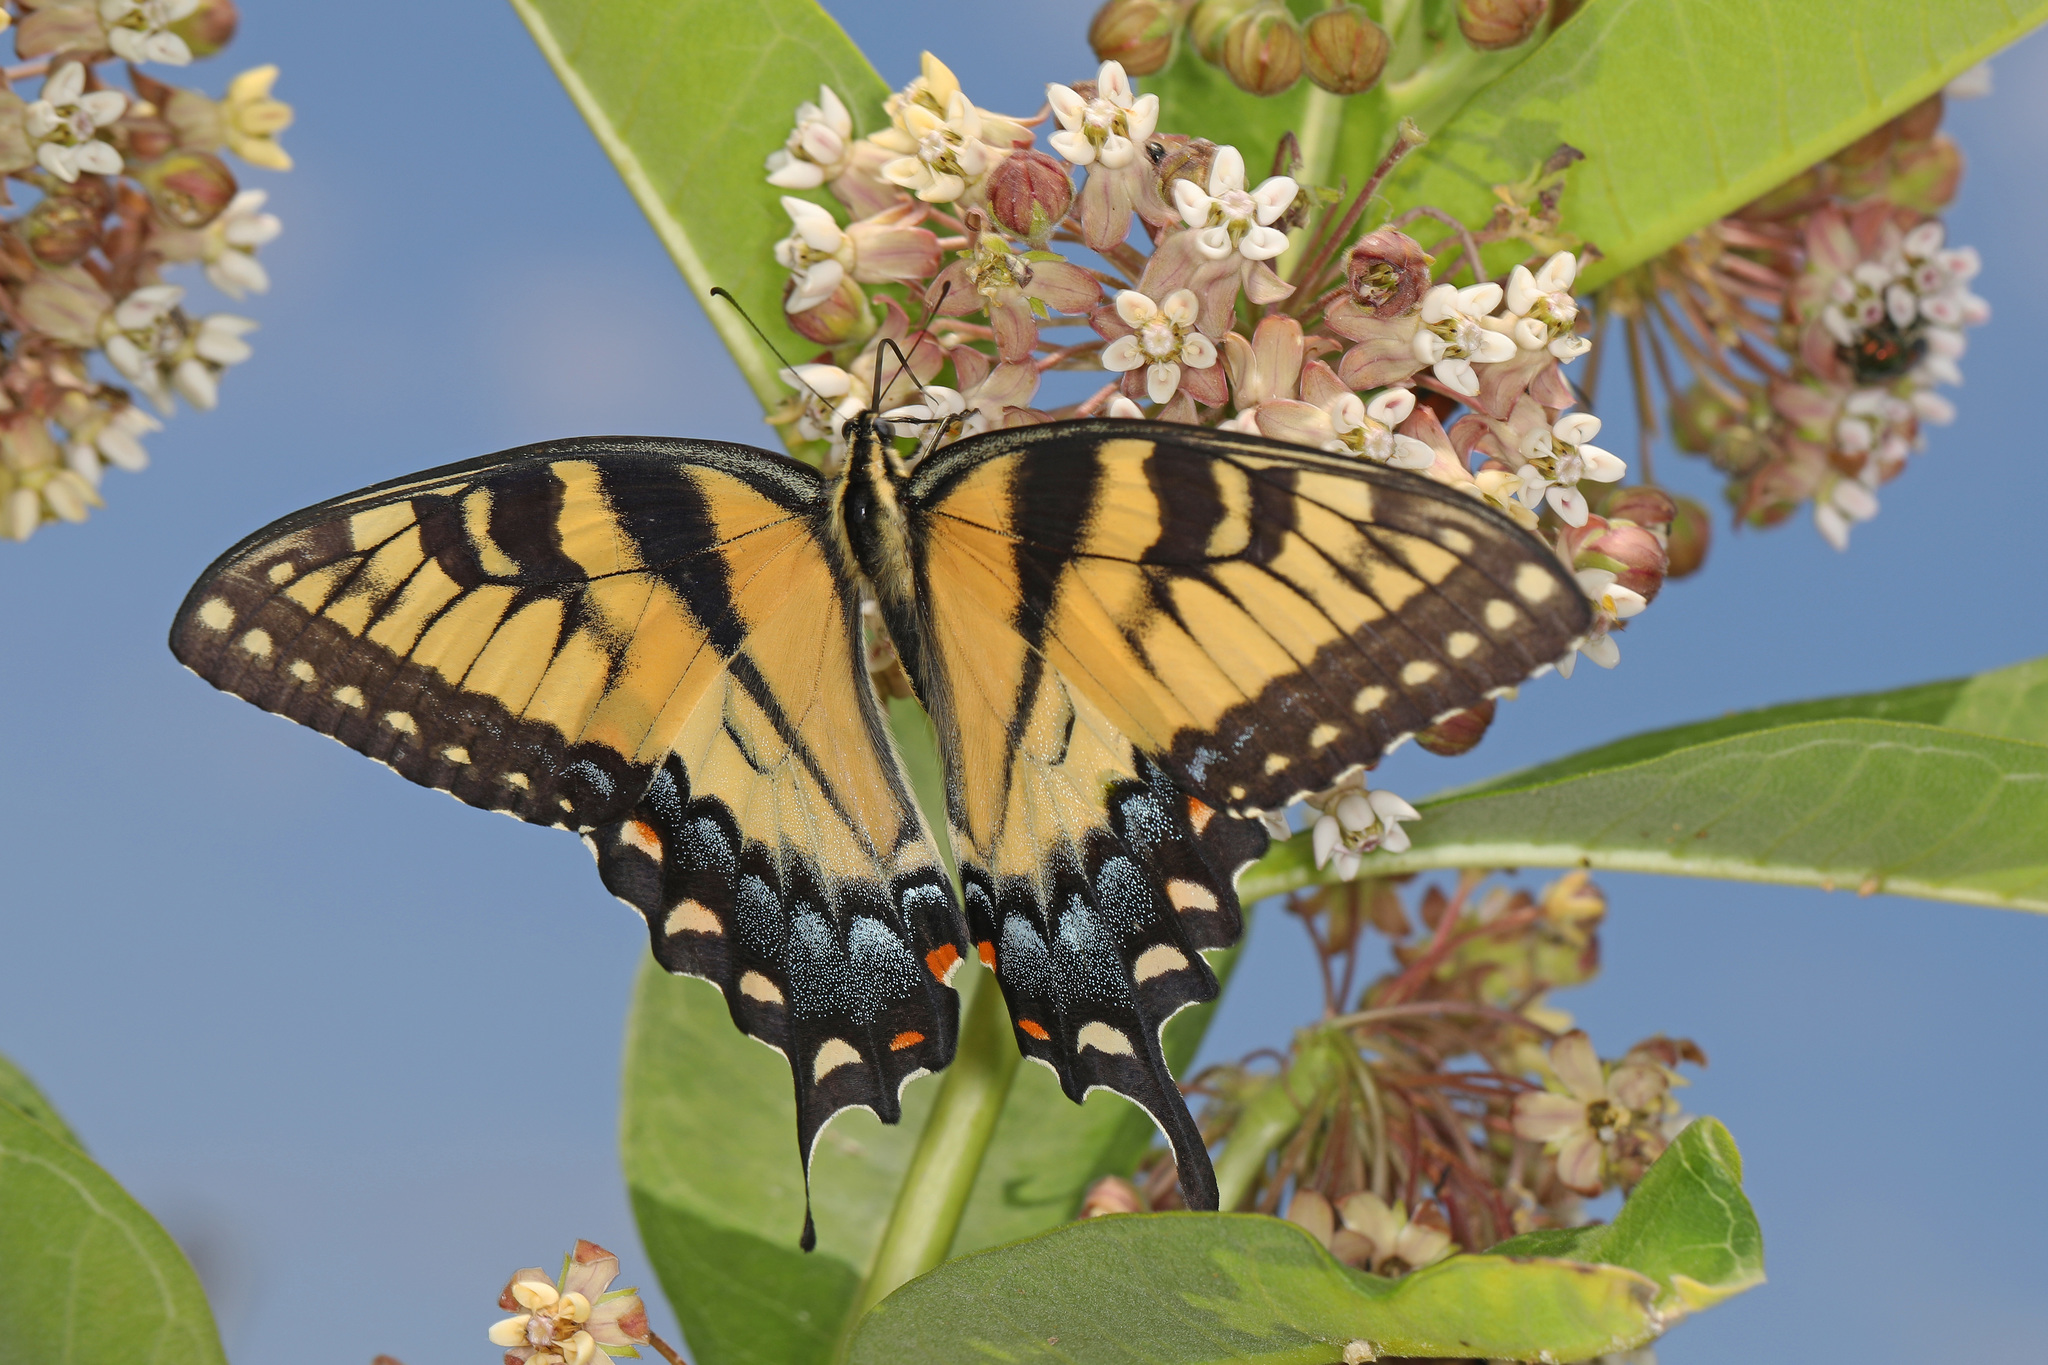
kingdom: Animalia
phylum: Arthropoda
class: Insecta
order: Lepidoptera
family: Papilionidae
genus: Papilio
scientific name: Papilio glaucus
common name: Tiger swallowtail
